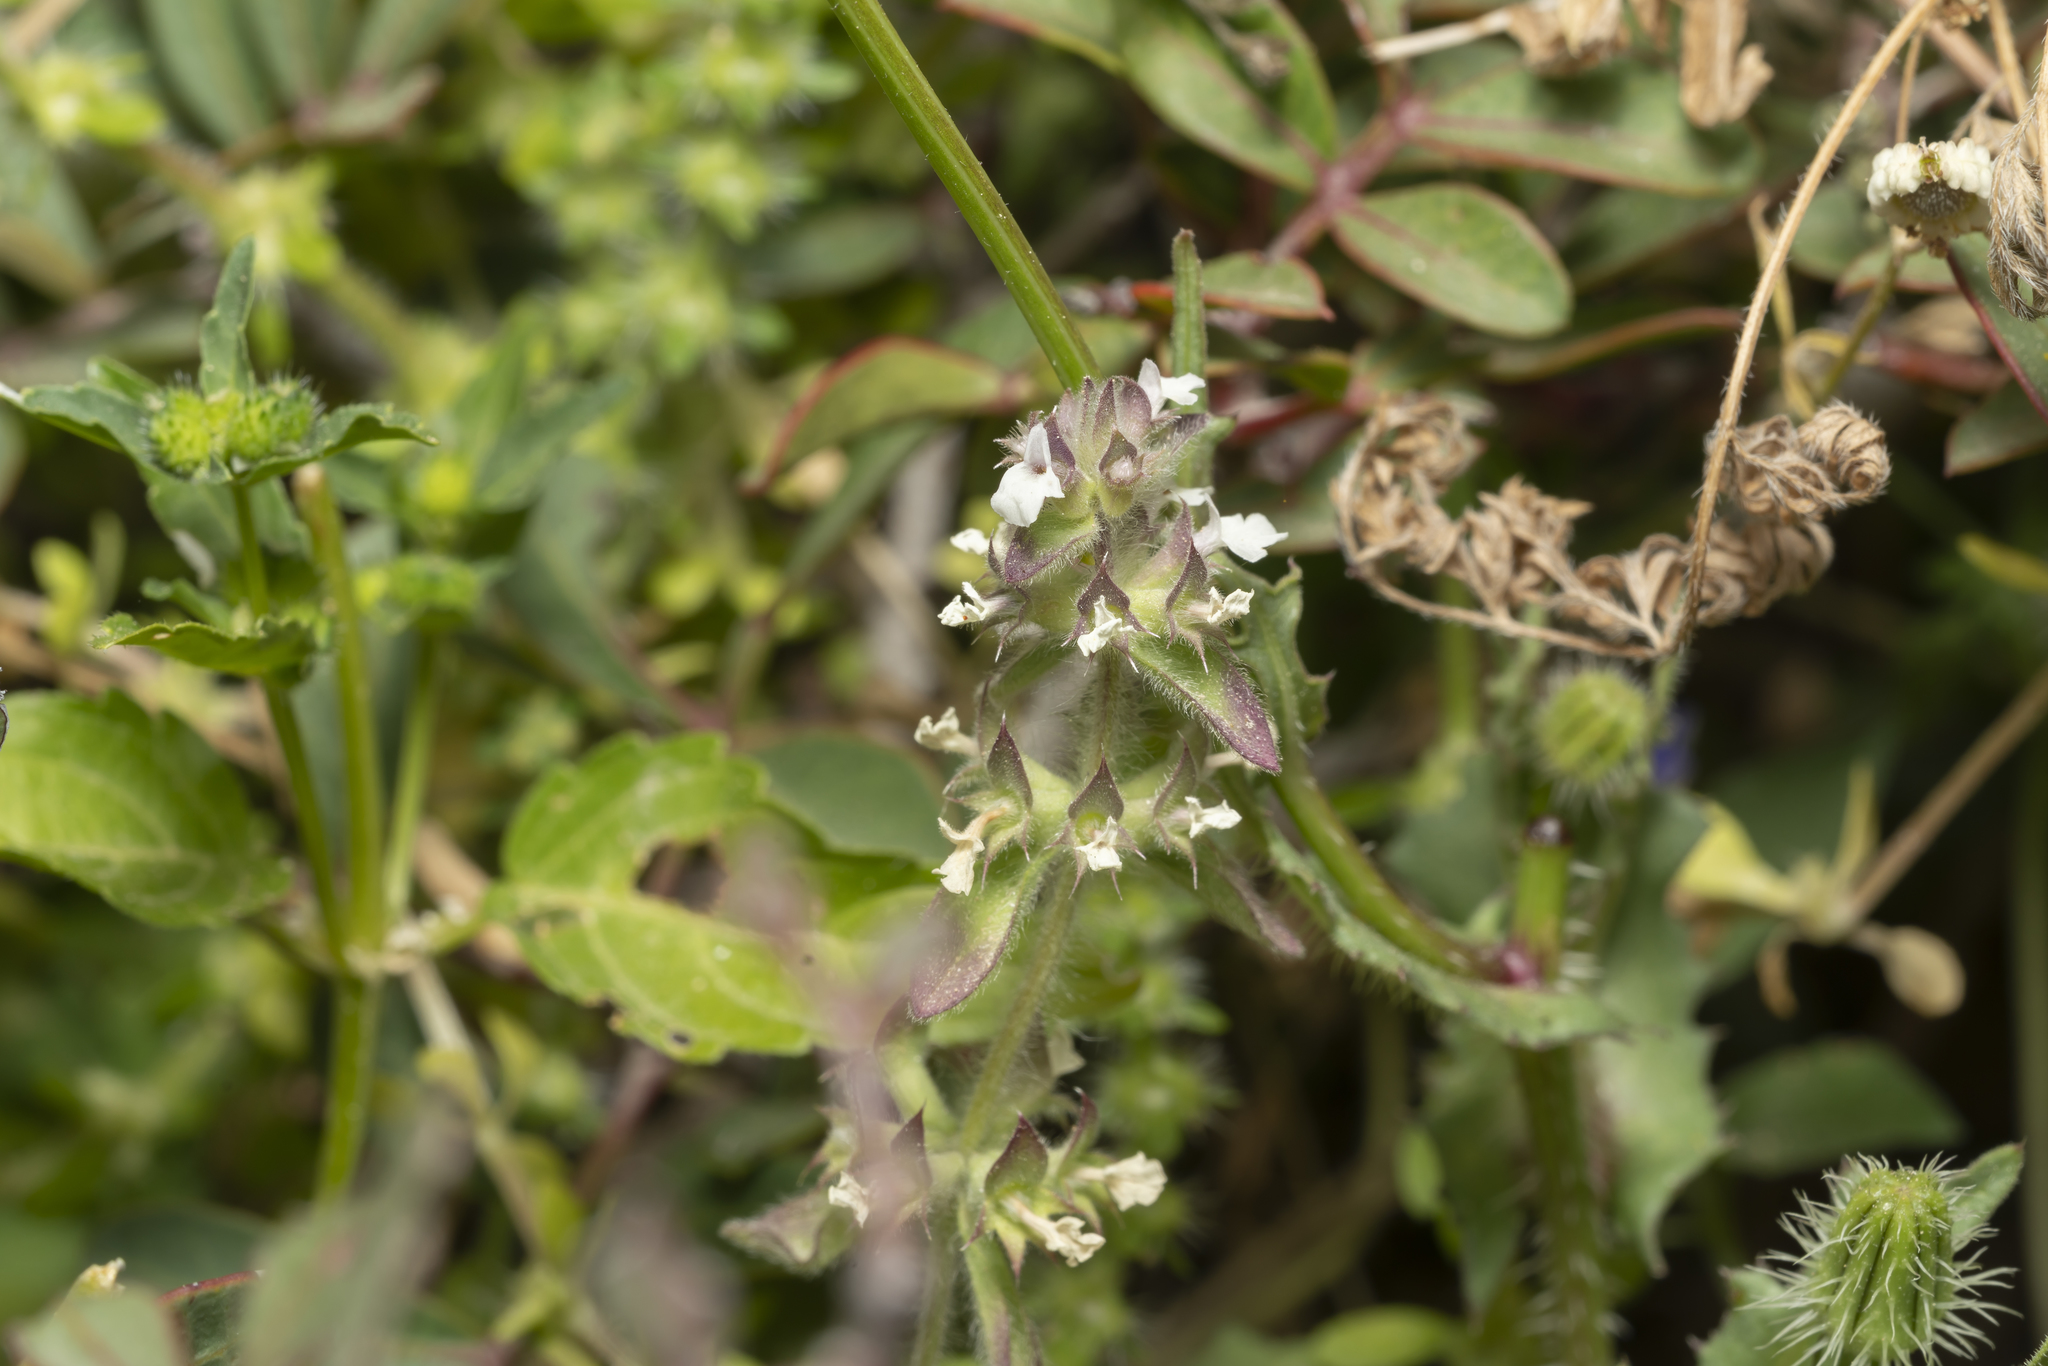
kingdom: Plantae
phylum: Tracheophyta
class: Magnoliopsida
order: Lamiales
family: Lamiaceae
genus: Sideritis
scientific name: Sideritis romana
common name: Simplebeak ironwort
